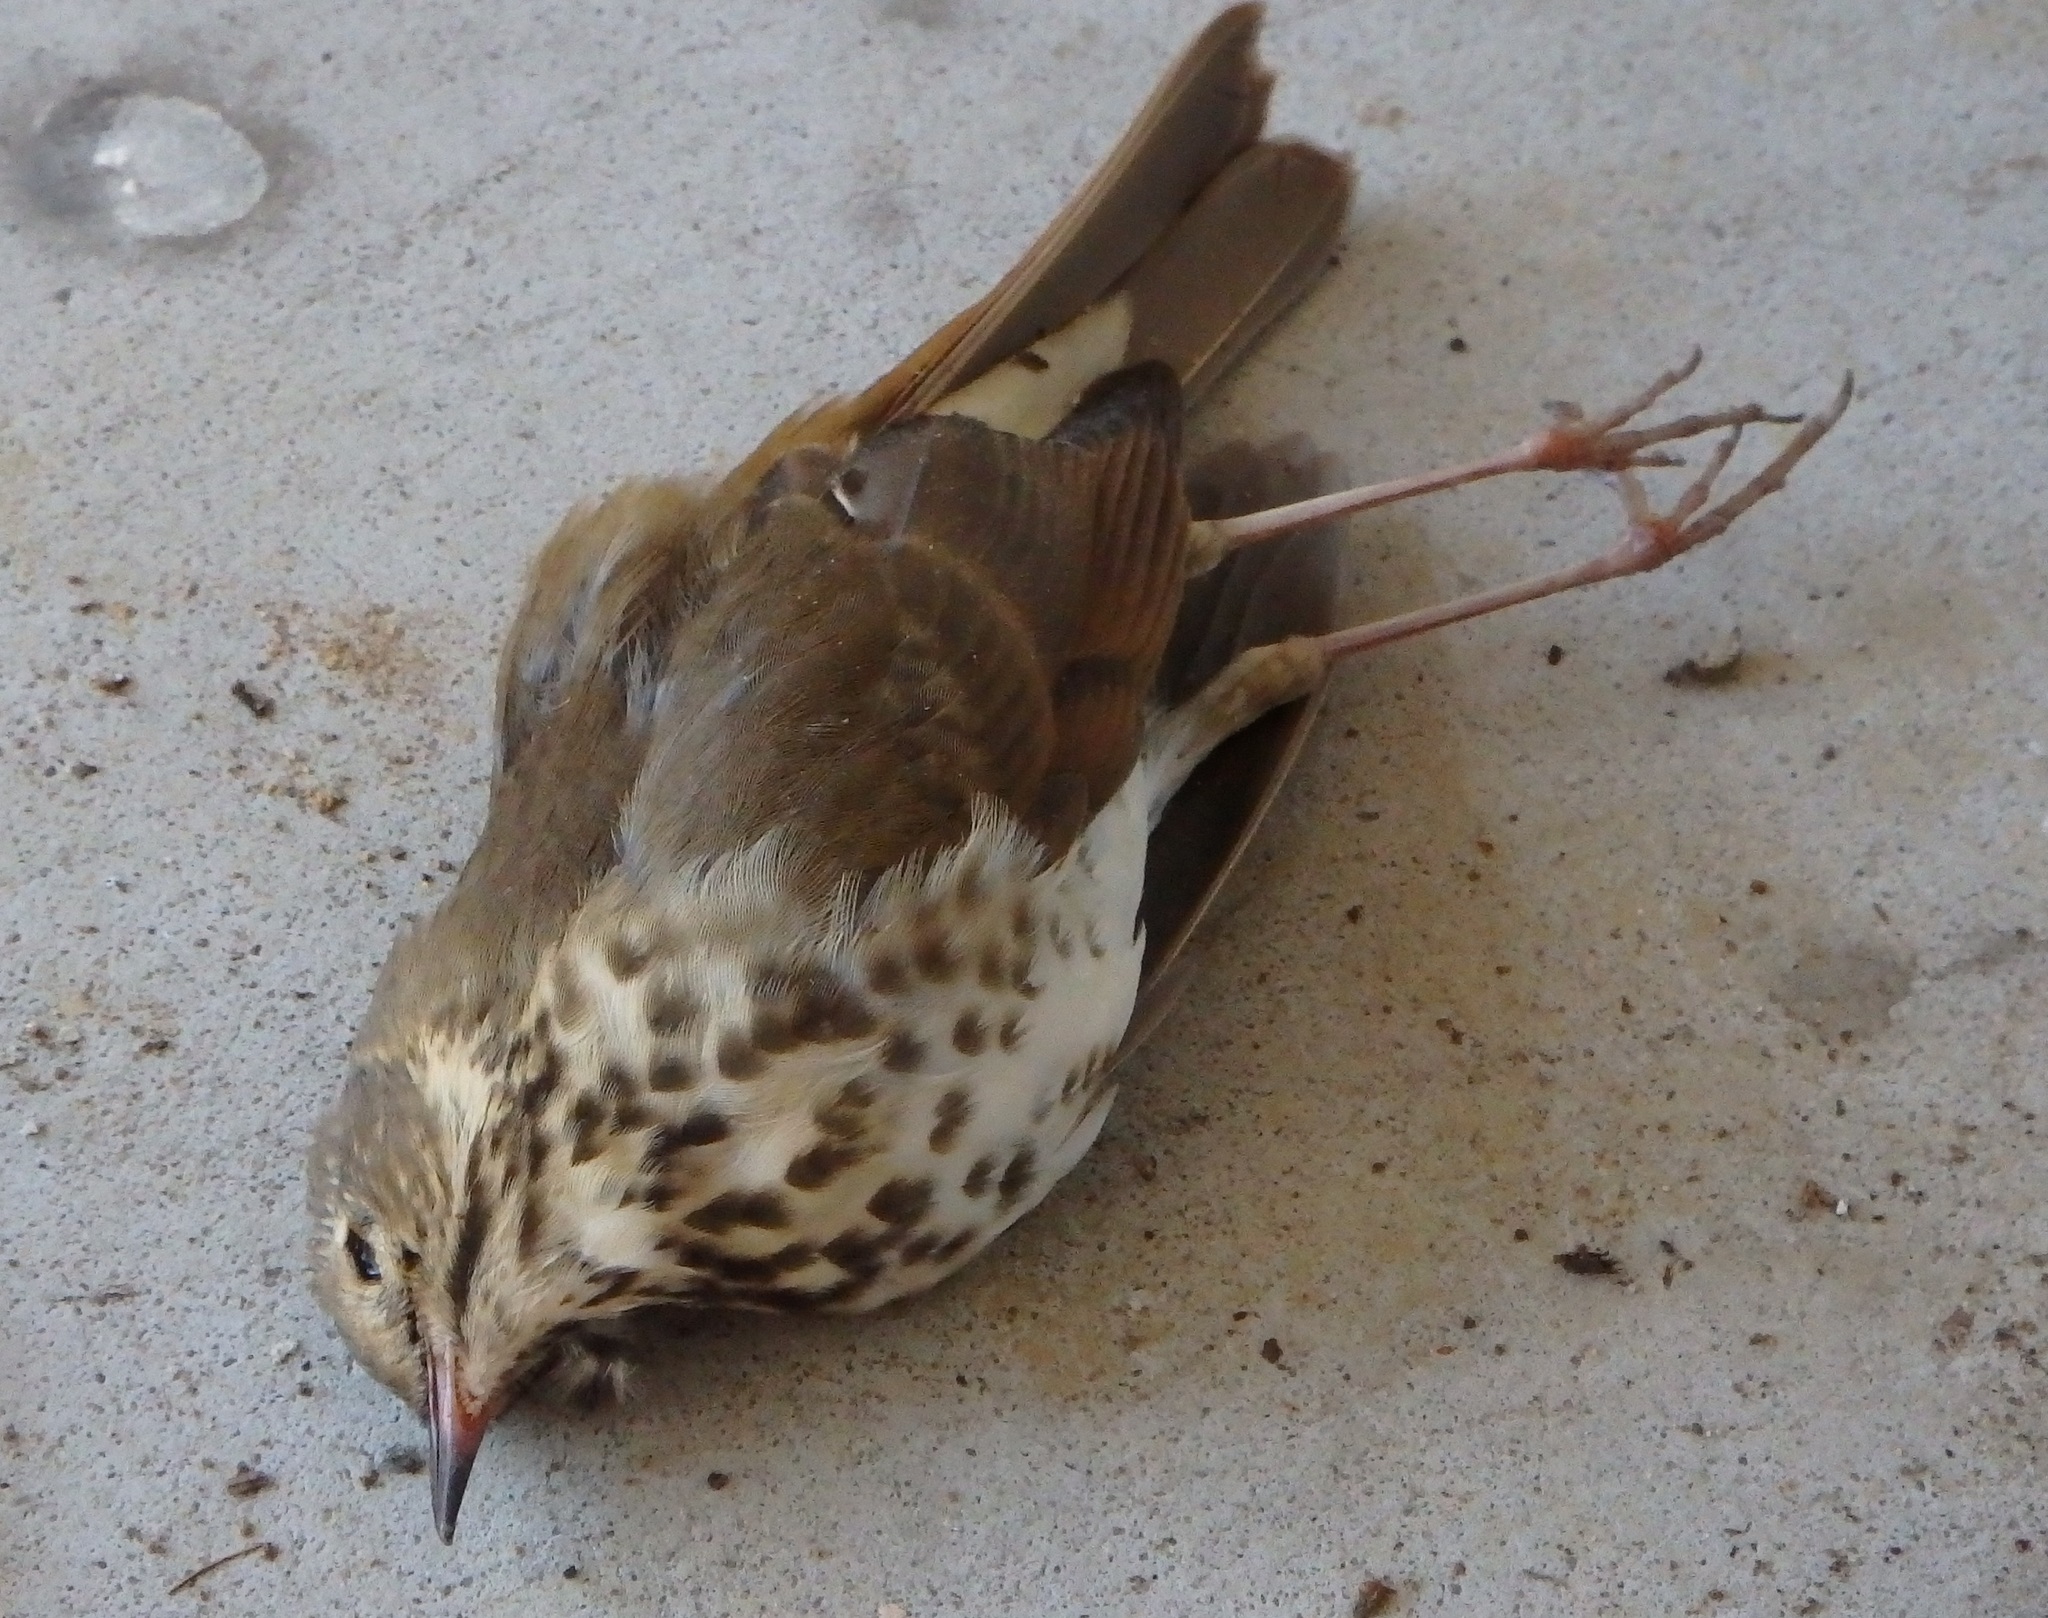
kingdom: Animalia
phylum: Chordata
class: Aves
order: Passeriformes
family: Turdidae
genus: Catharus
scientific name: Catharus guttatus
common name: Hermit thrush
